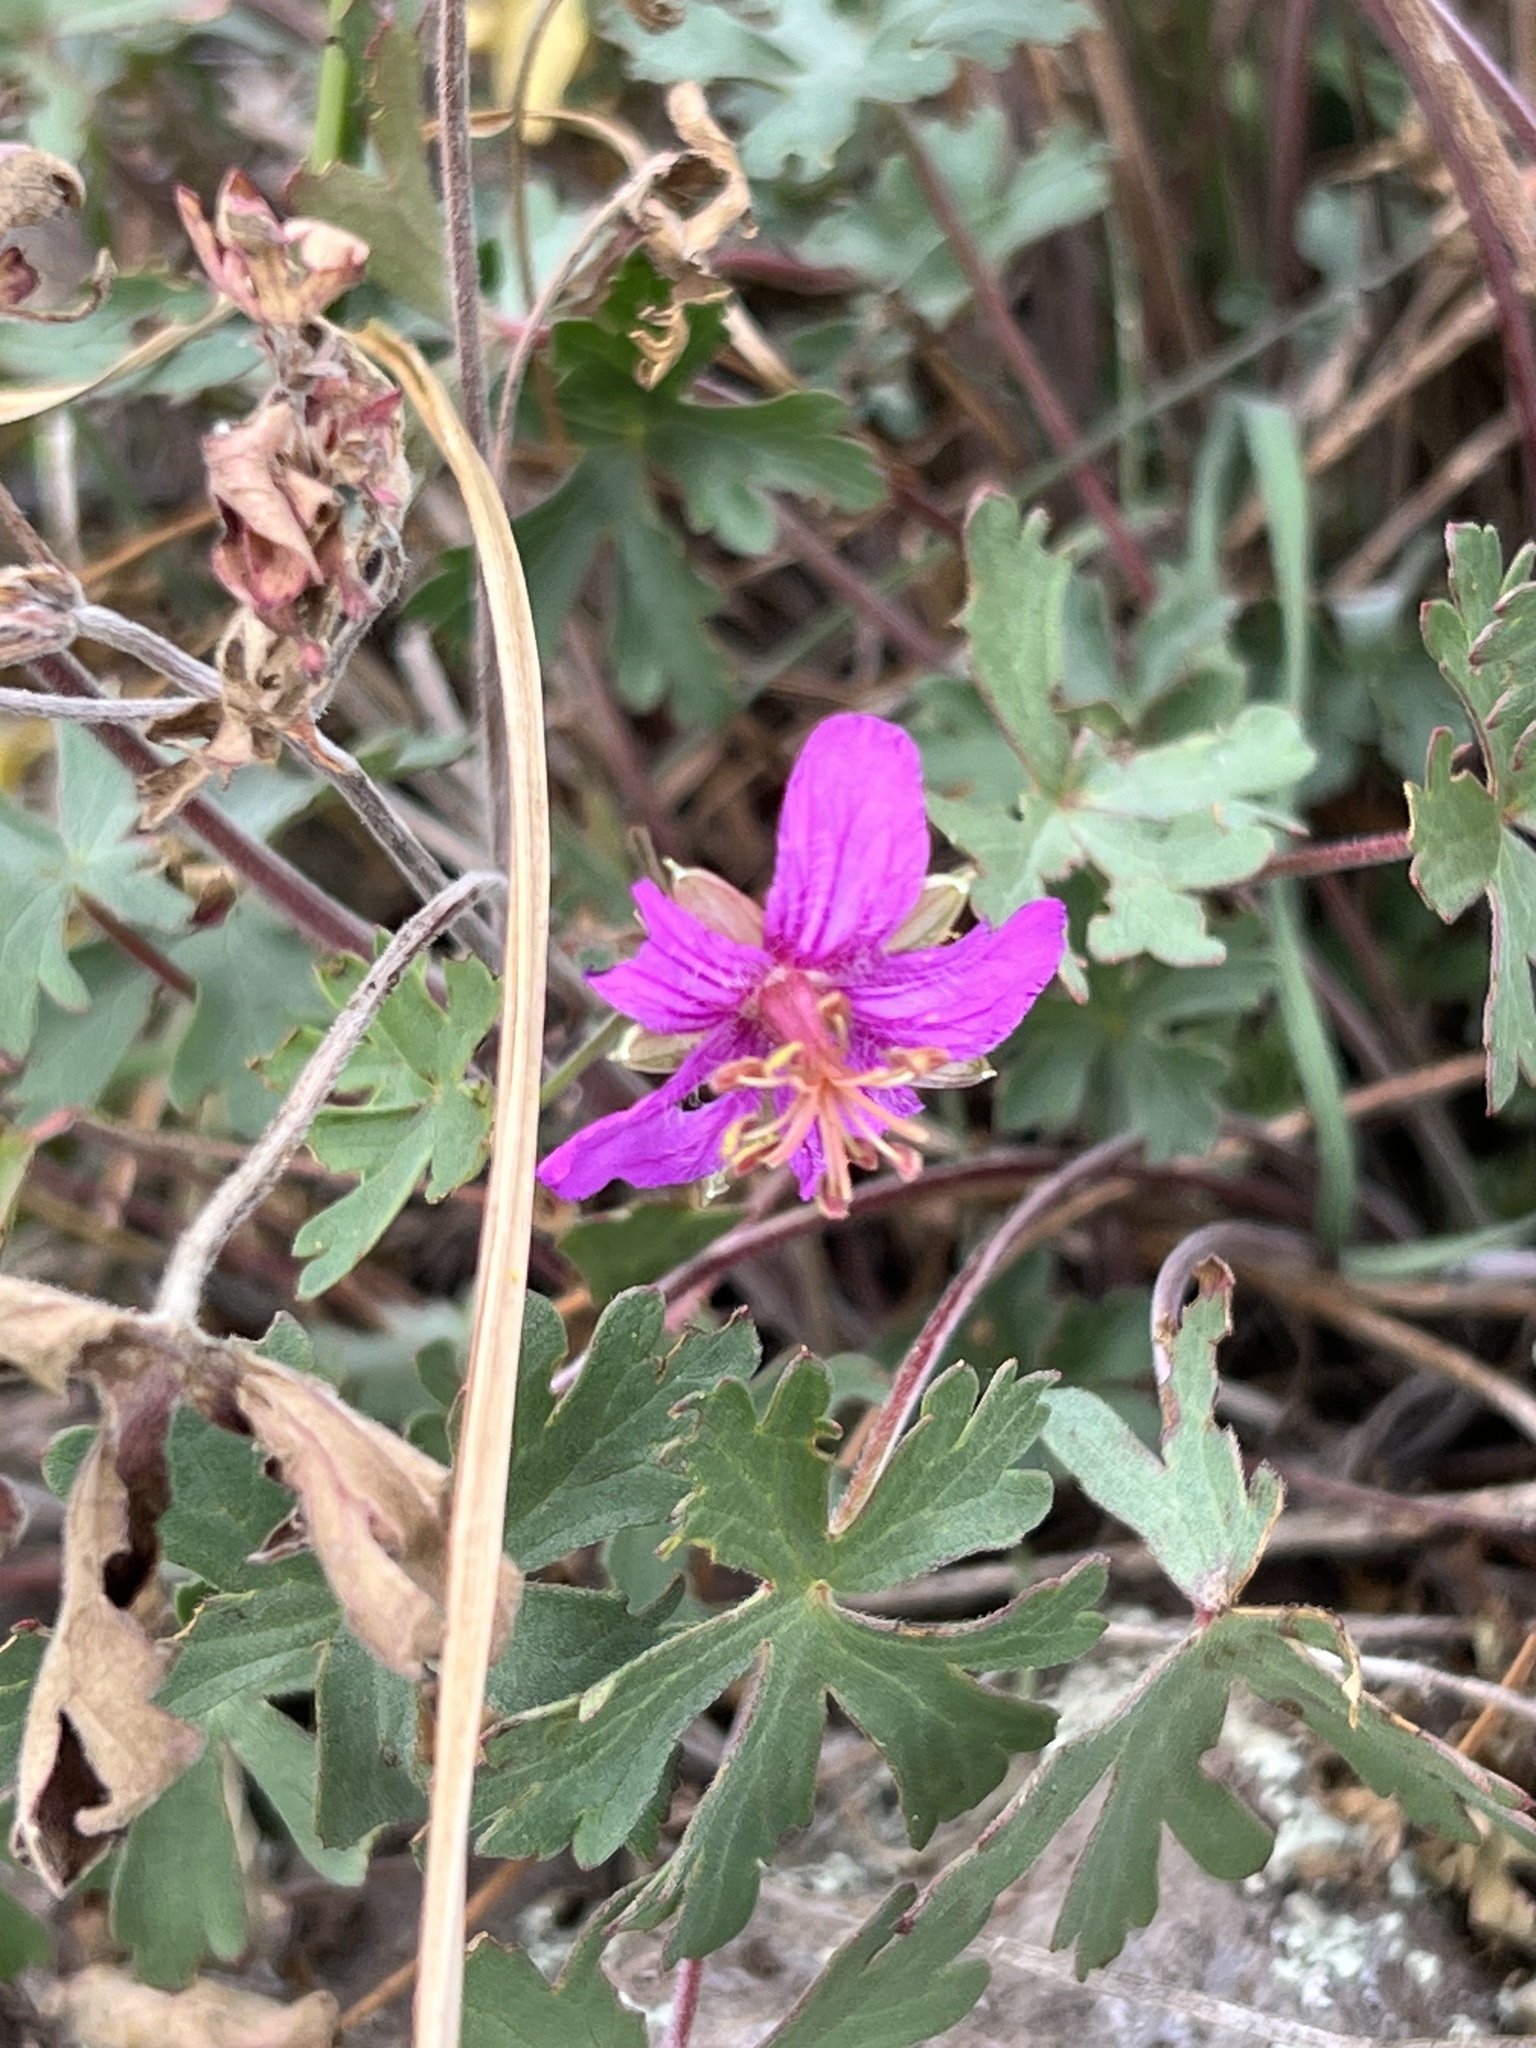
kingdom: Plantae
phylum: Tracheophyta
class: Magnoliopsida
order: Geraniales
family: Geraniaceae
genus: Geranium
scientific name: Geranium caespitosum
